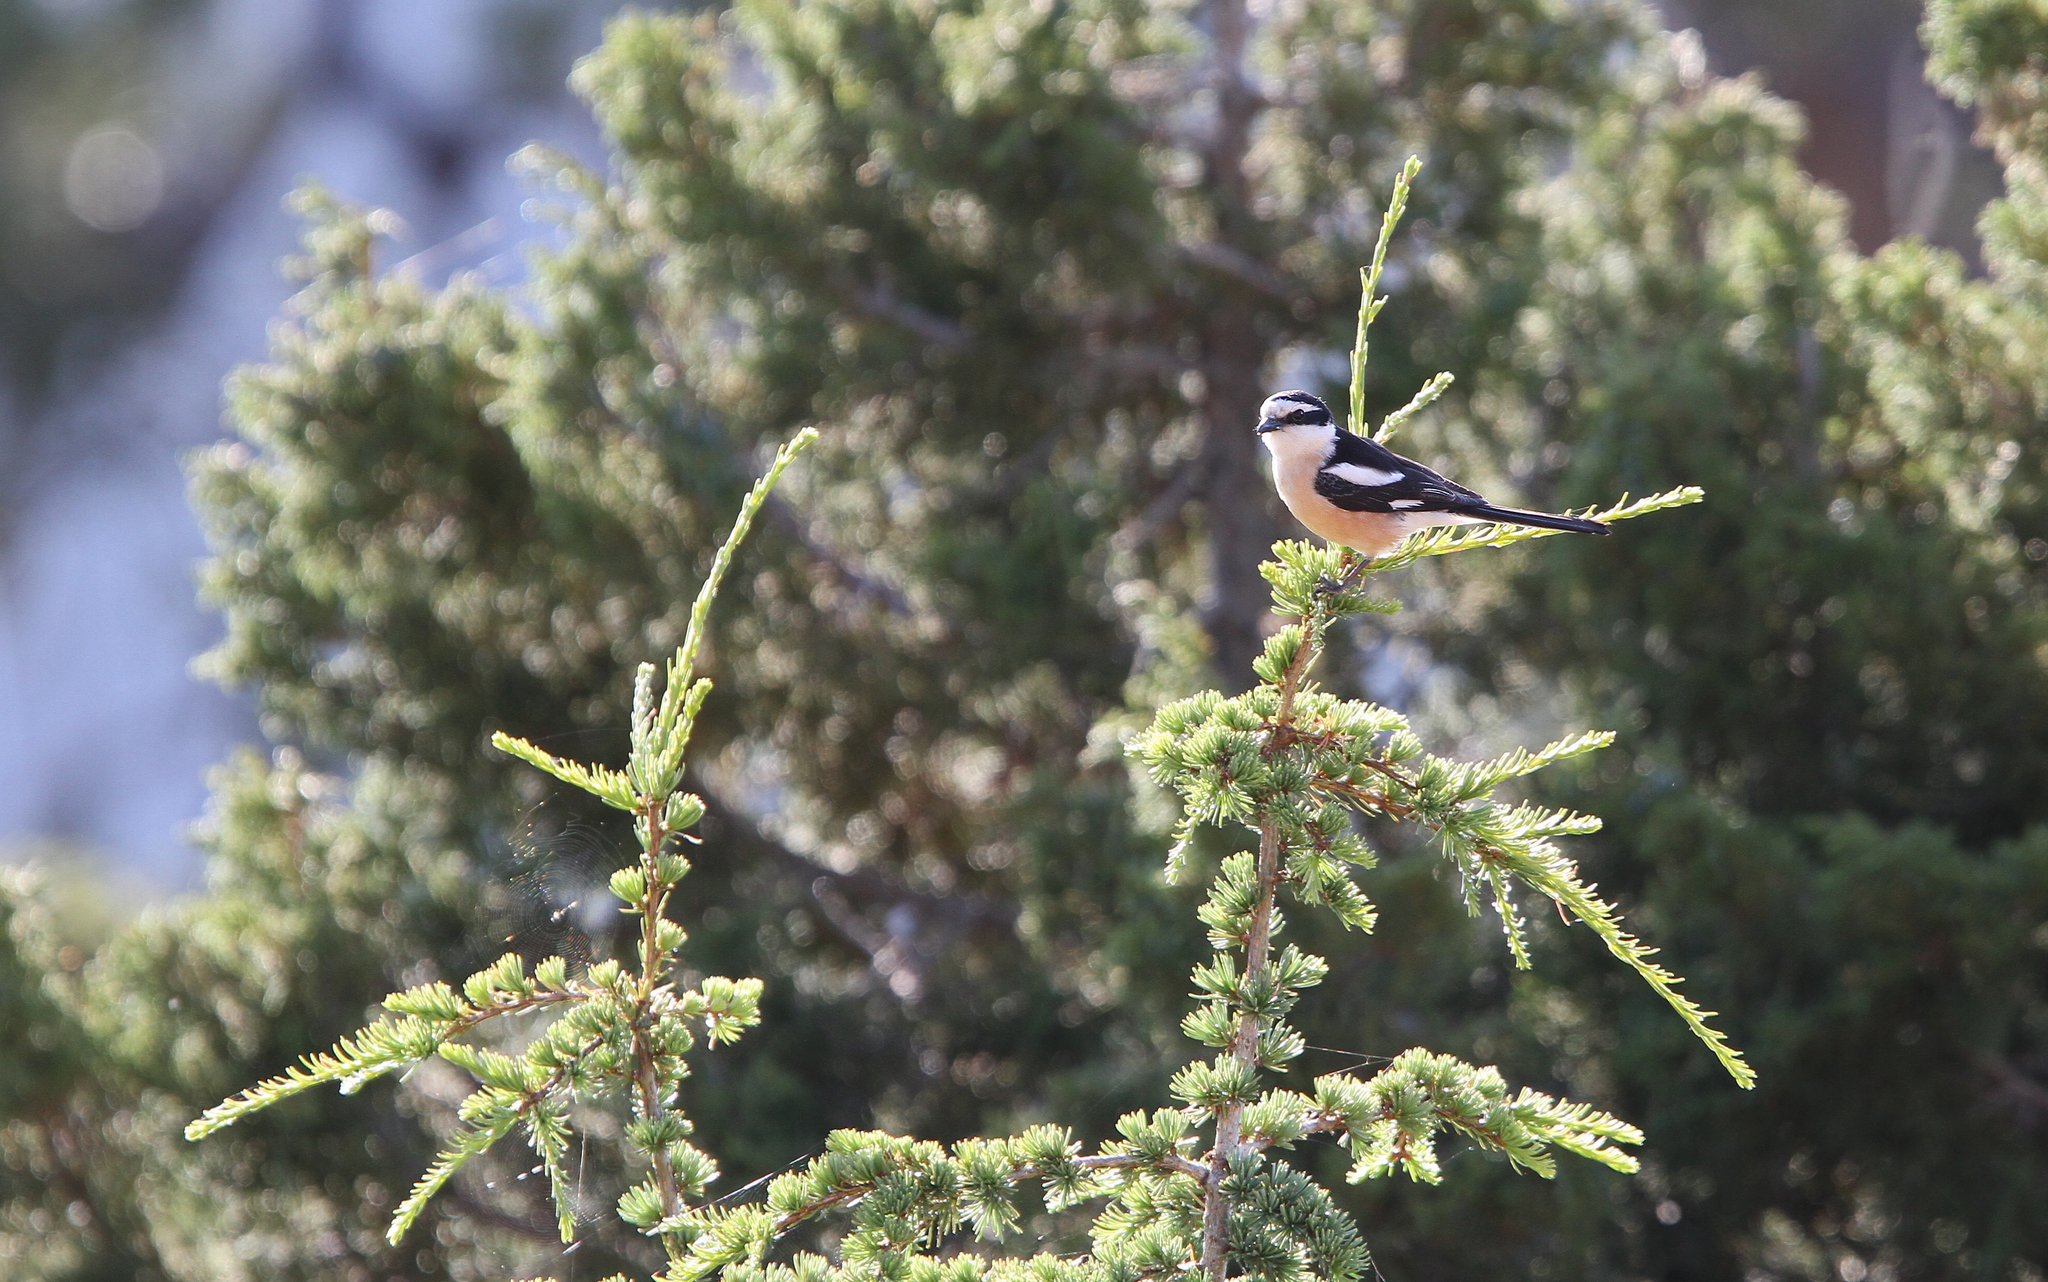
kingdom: Animalia
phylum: Chordata
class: Aves
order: Passeriformes
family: Laniidae
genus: Lanius
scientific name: Lanius nubicus
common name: Masked shrike
